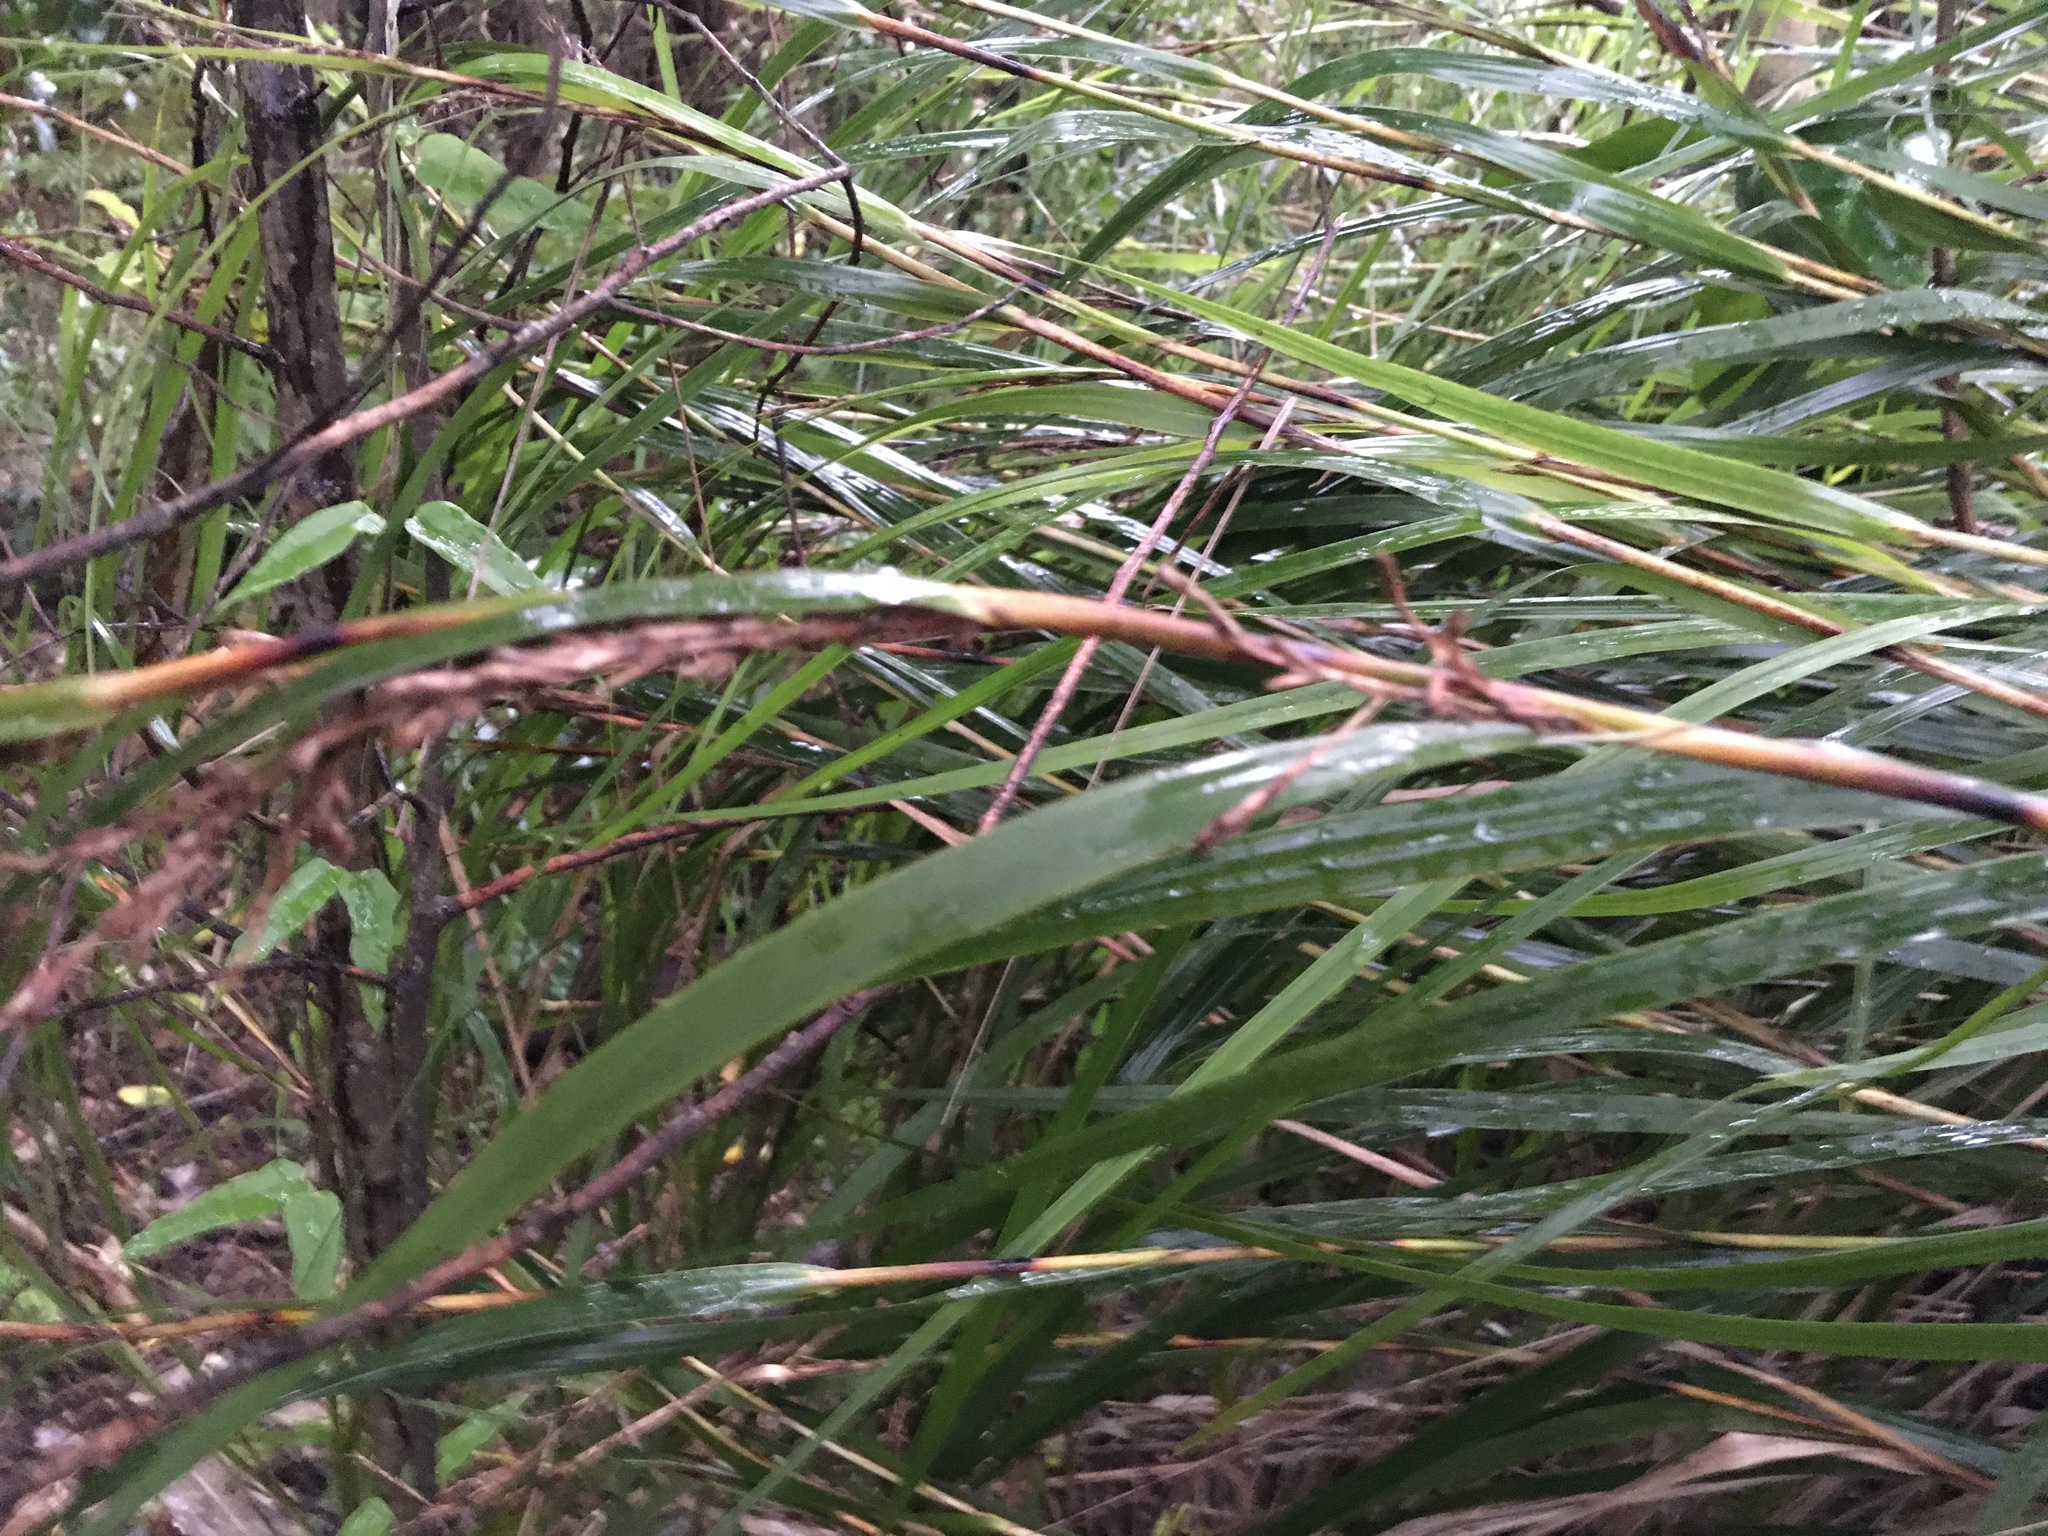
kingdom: Plantae
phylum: Tracheophyta
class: Magnoliopsida
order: Gentianales
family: Apocynaceae
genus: Parsonsia
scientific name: Parsonsia heterophylla
